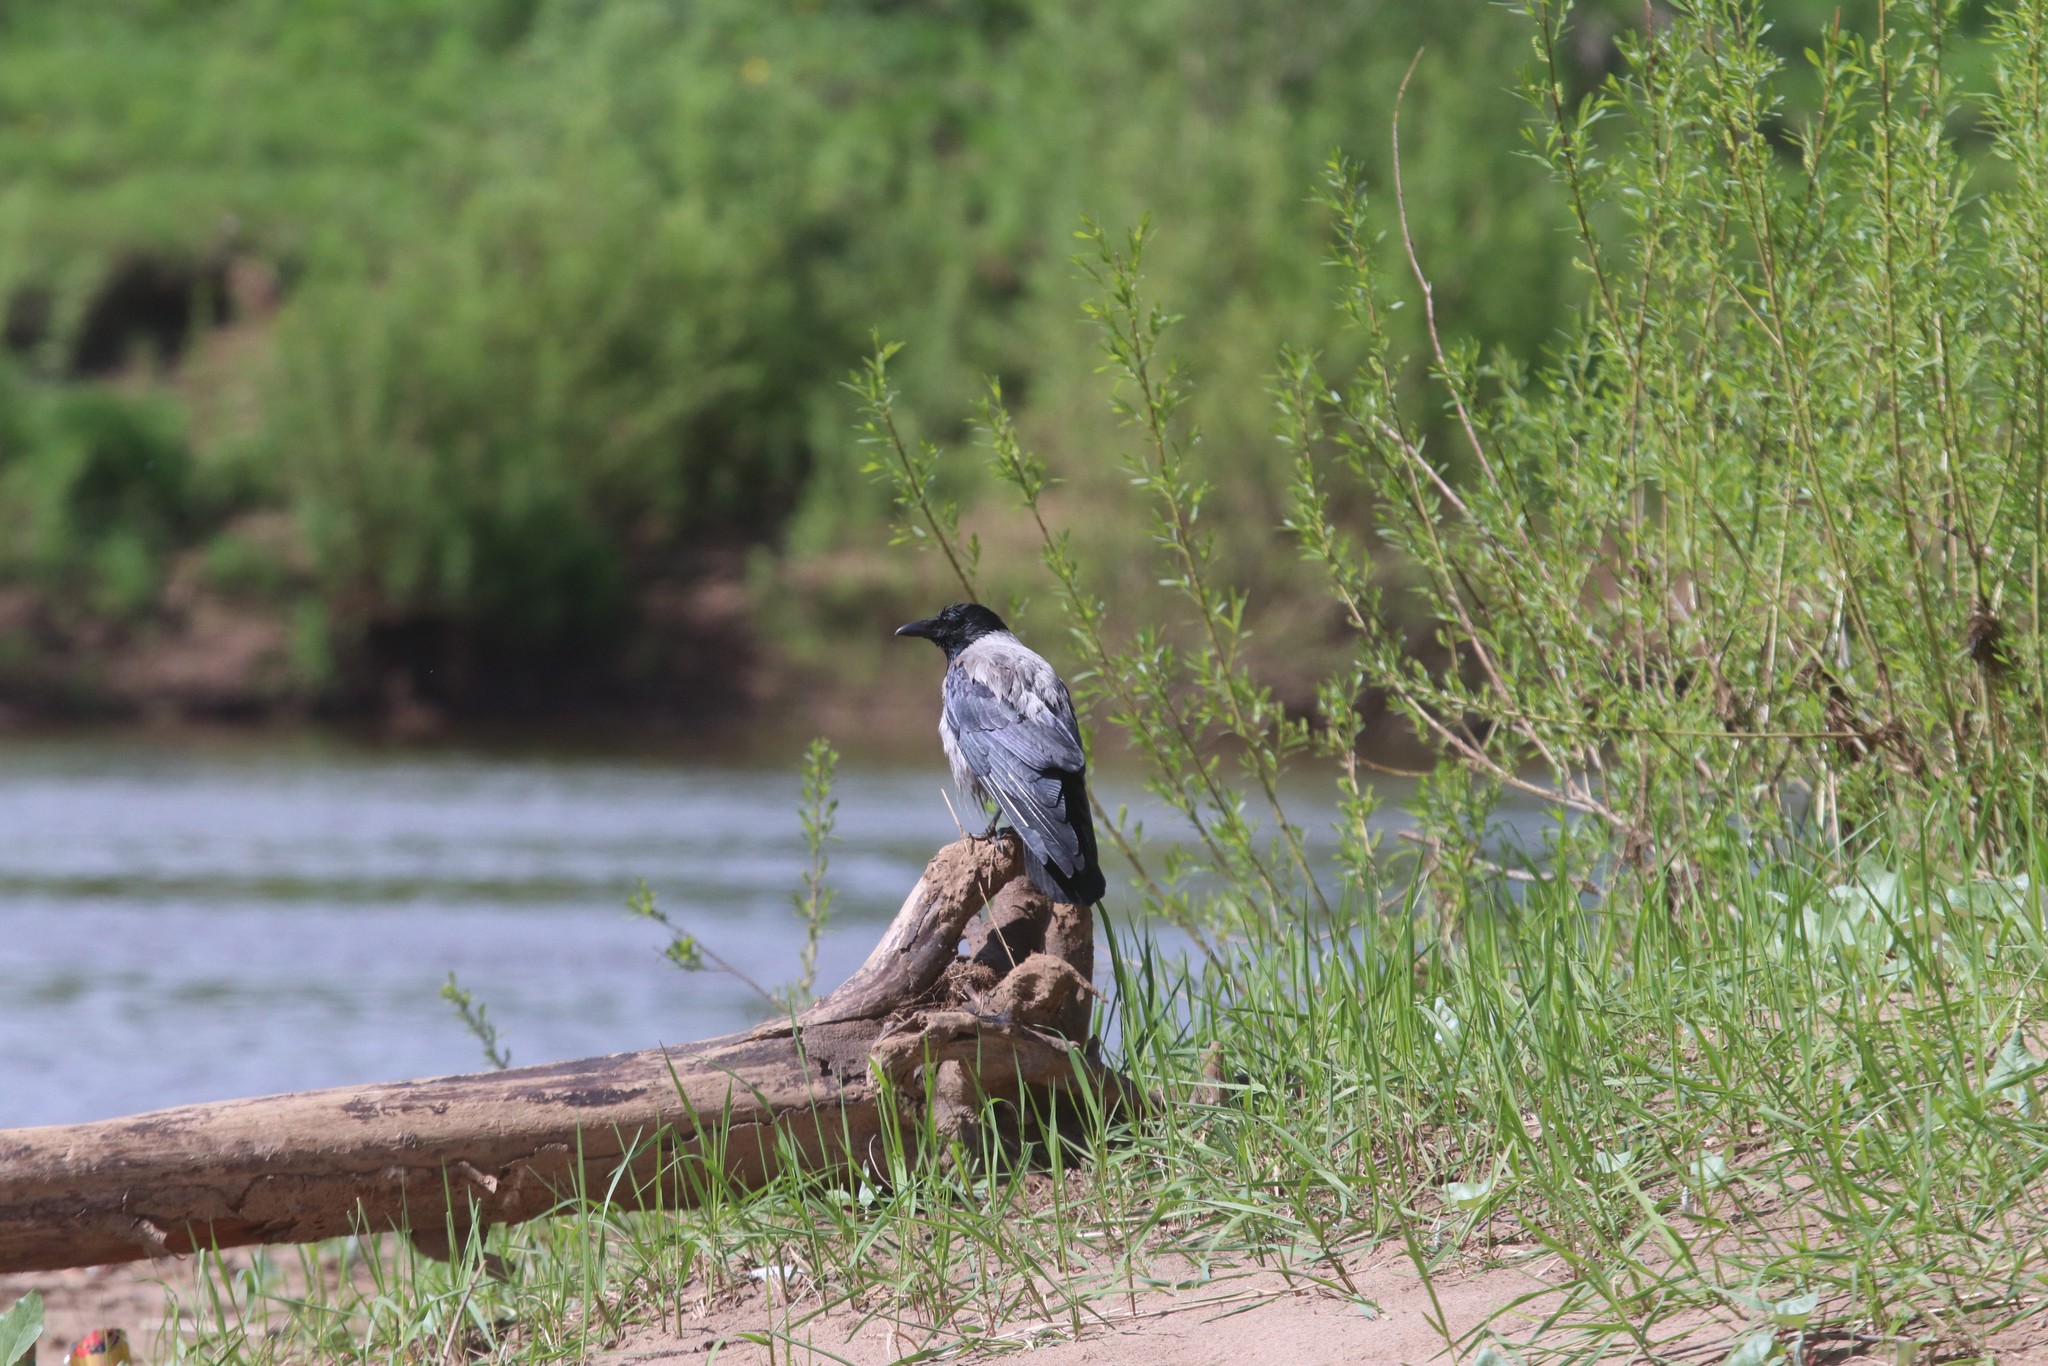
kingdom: Animalia
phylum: Chordata
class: Aves
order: Passeriformes
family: Corvidae
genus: Corvus
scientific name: Corvus cornix
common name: Hooded crow
